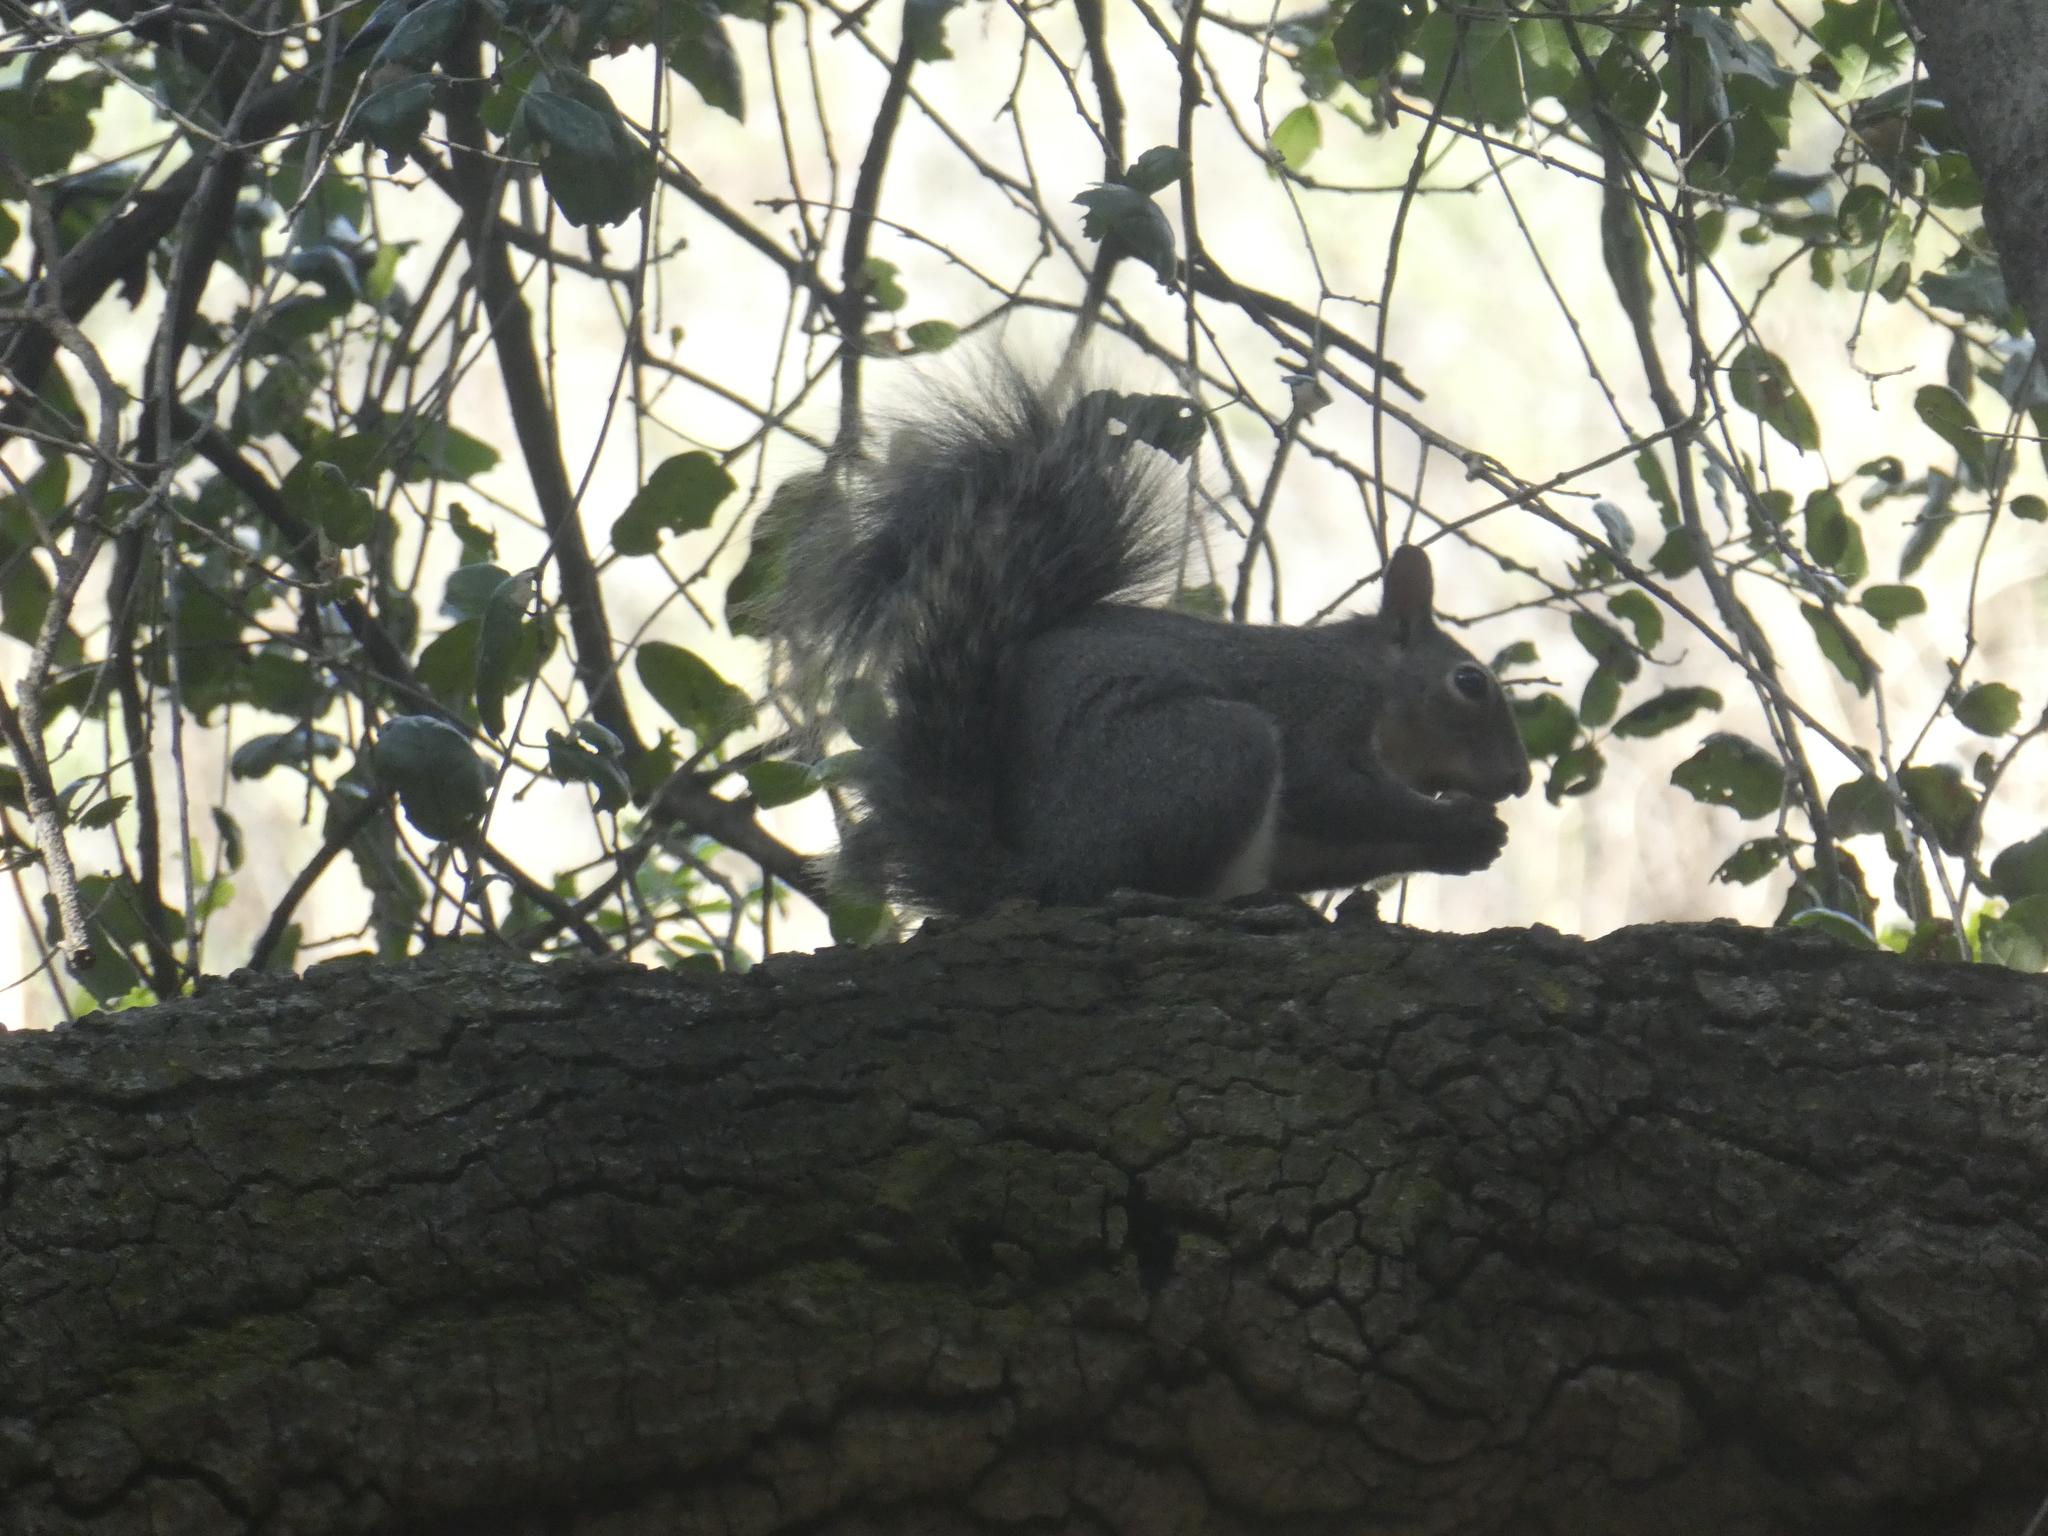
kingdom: Animalia
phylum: Chordata
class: Mammalia
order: Rodentia
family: Sciuridae
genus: Sciurus
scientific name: Sciurus griseus
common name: Western gray squirrel
